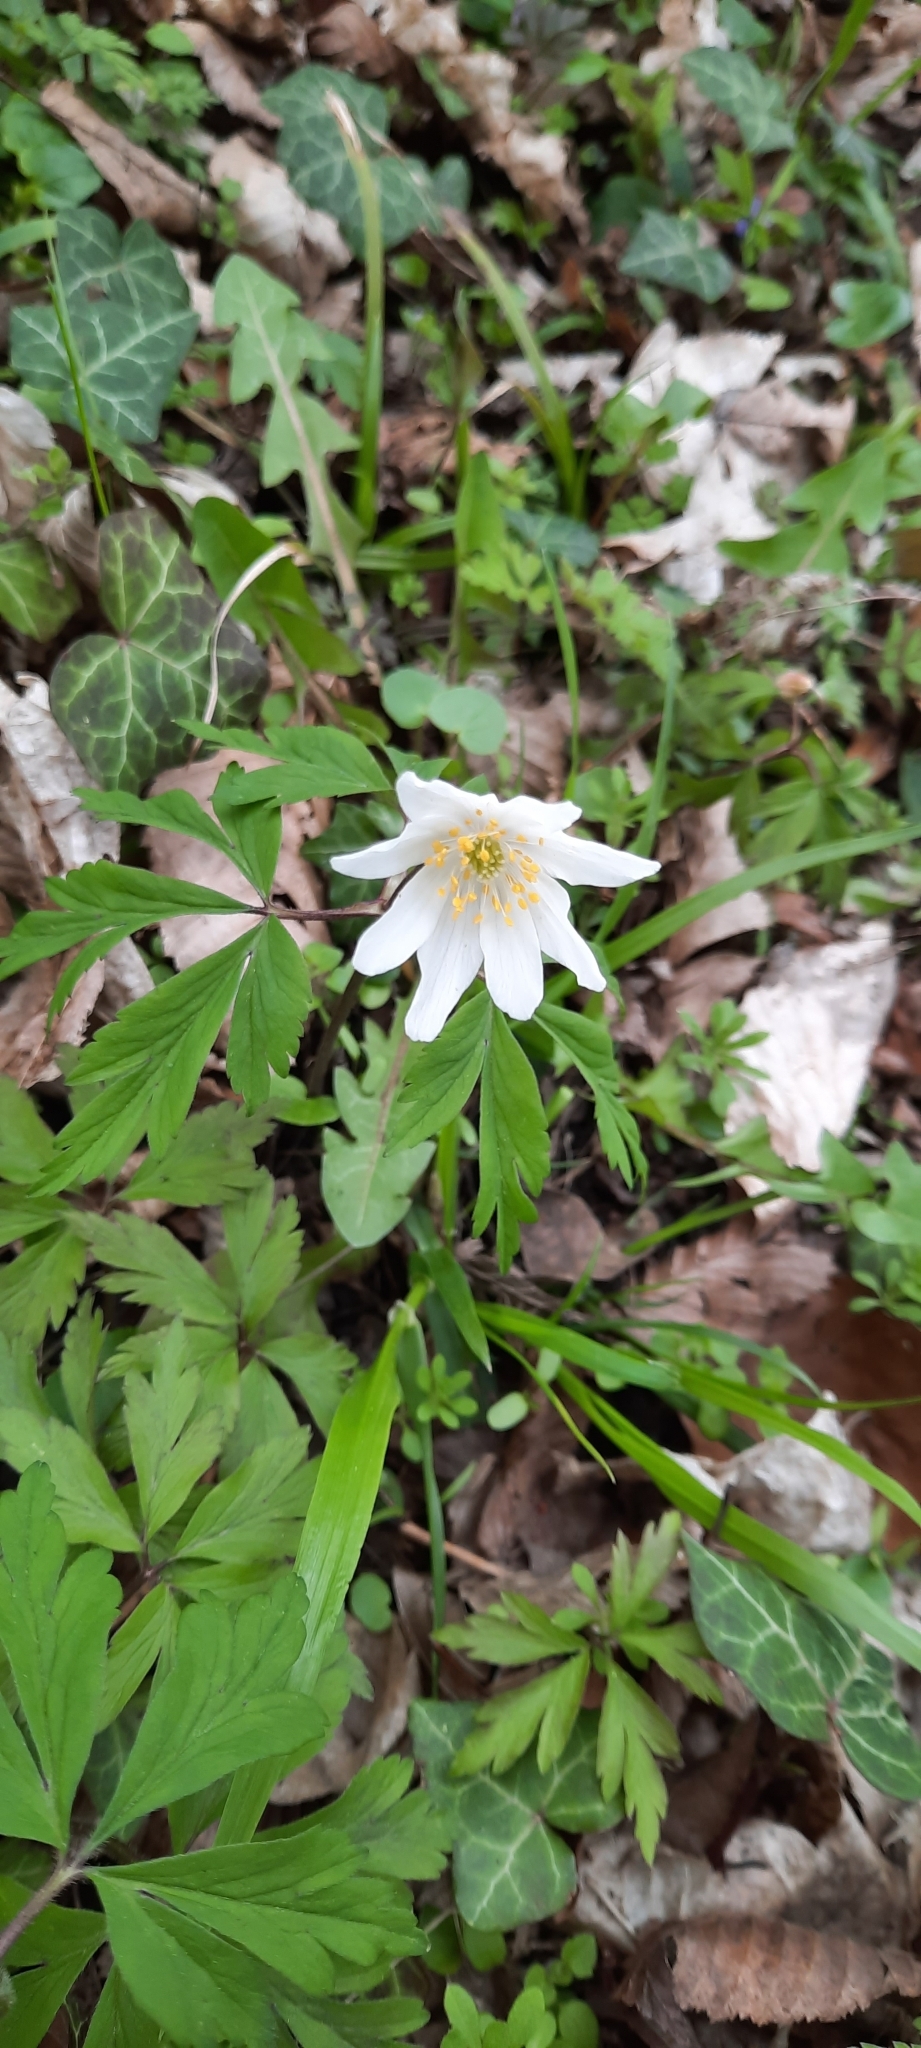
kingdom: Plantae
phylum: Tracheophyta
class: Magnoliopsida
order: Ranunculales
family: Ranunculaceae
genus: Anemone
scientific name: Anemone nemorosa
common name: Wood anemone
